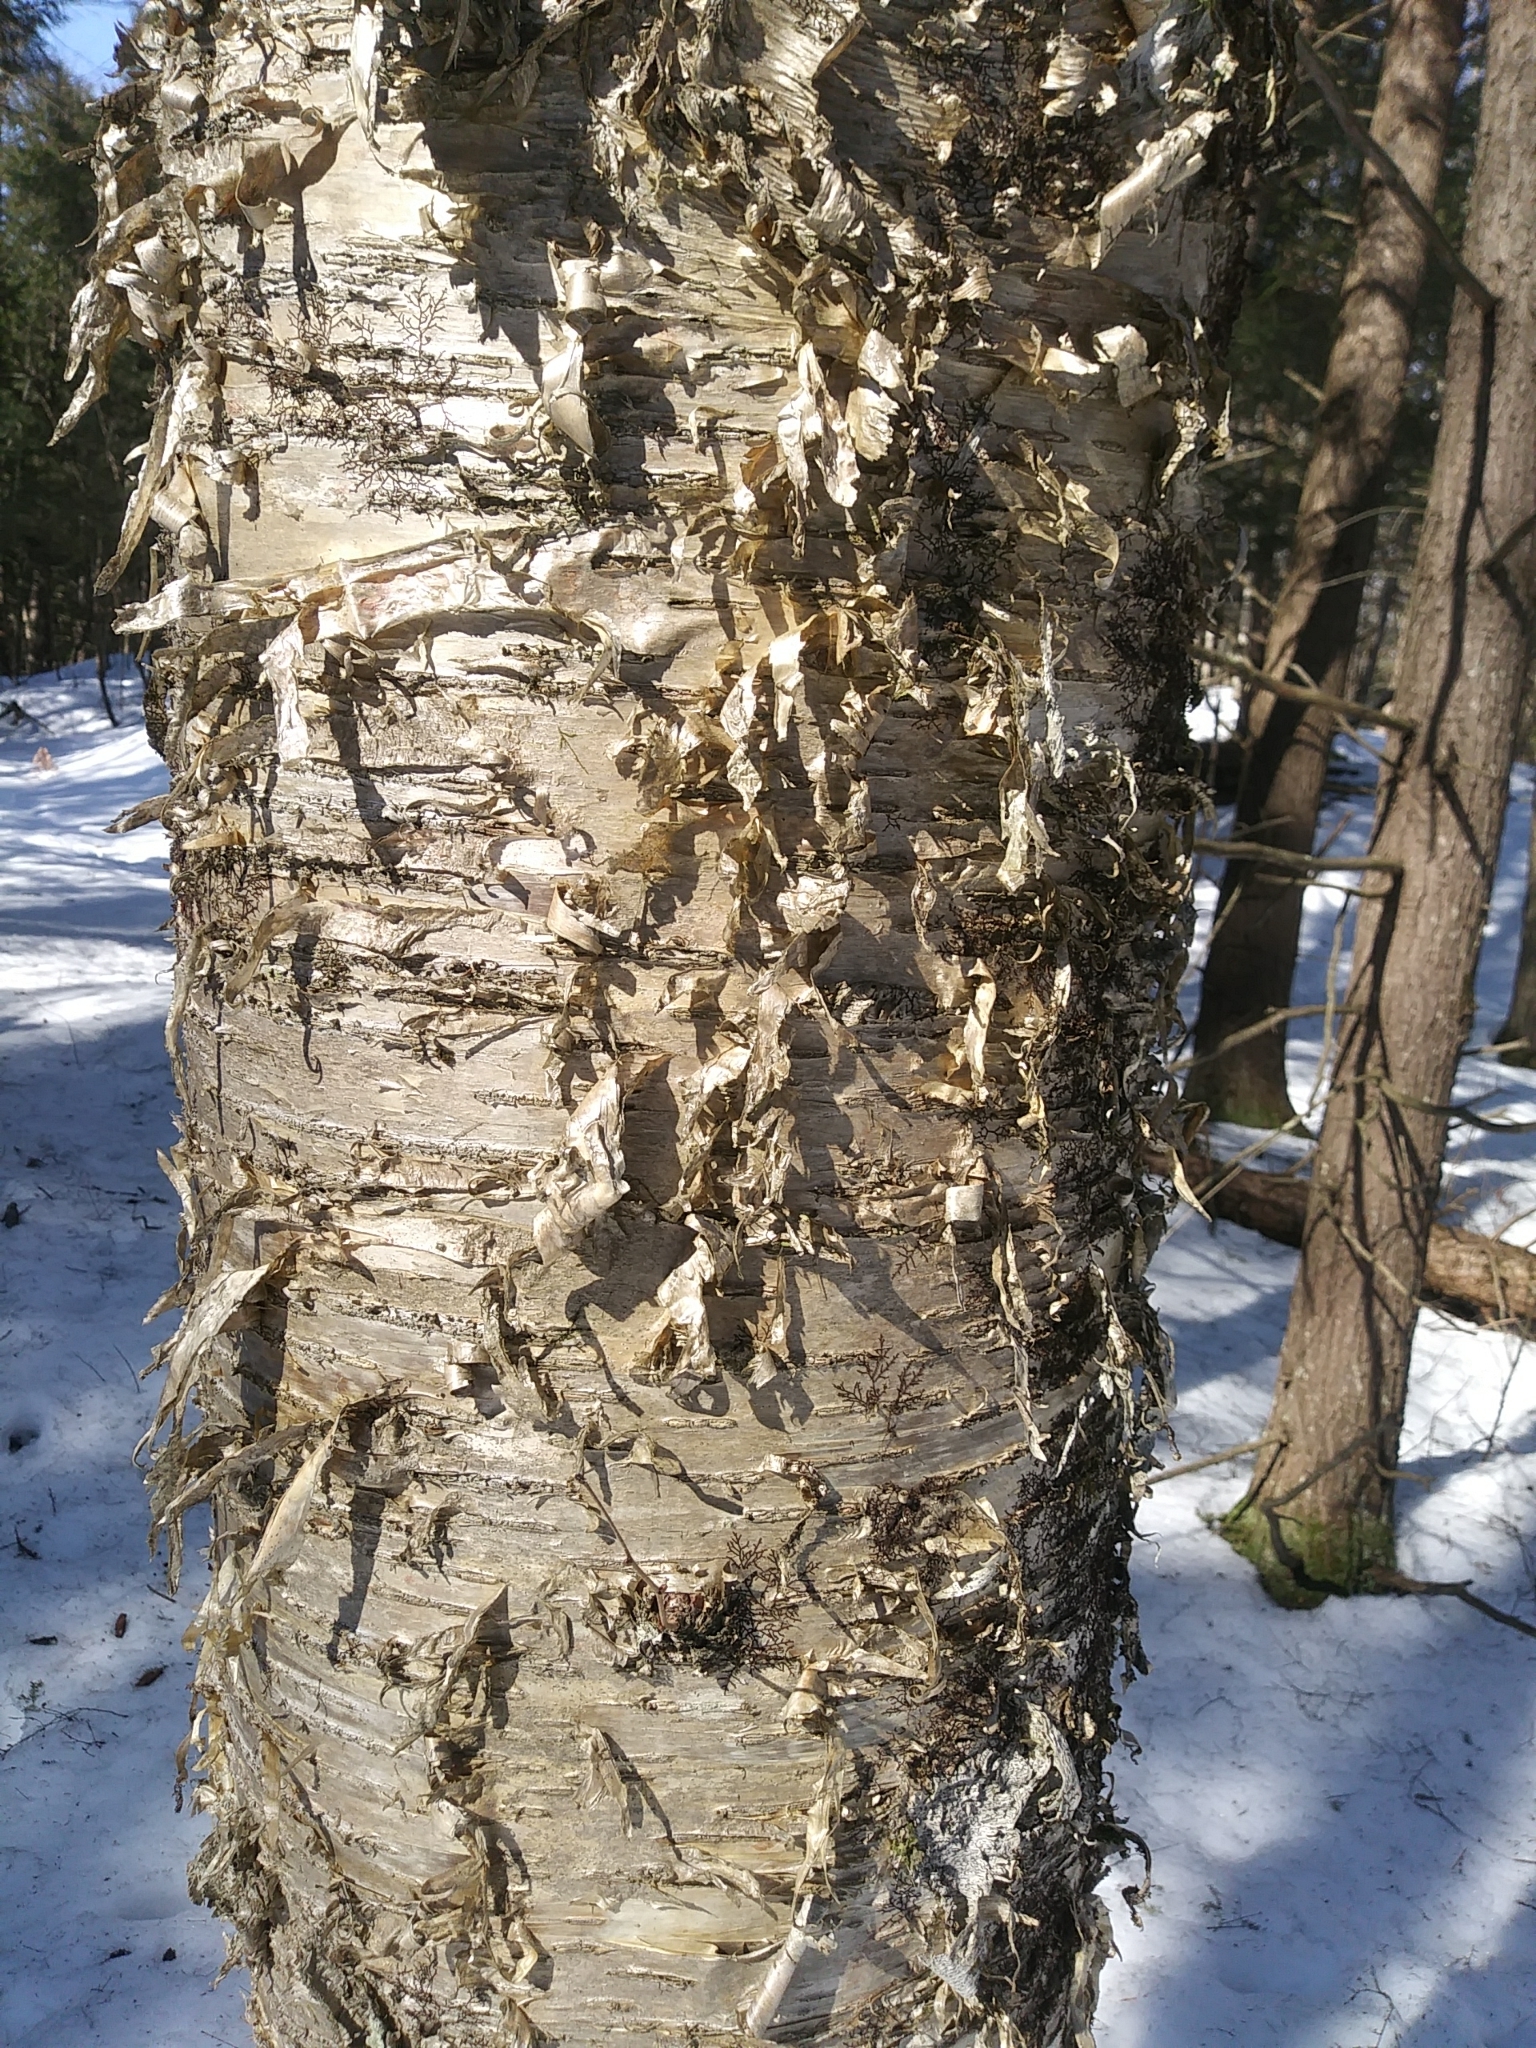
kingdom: Plantae
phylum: Tracheophyta
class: Magnoliopsida
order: Fagales
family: Betulaceae
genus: Betula
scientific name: Betula alleghaniensis
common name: Yellow birch
